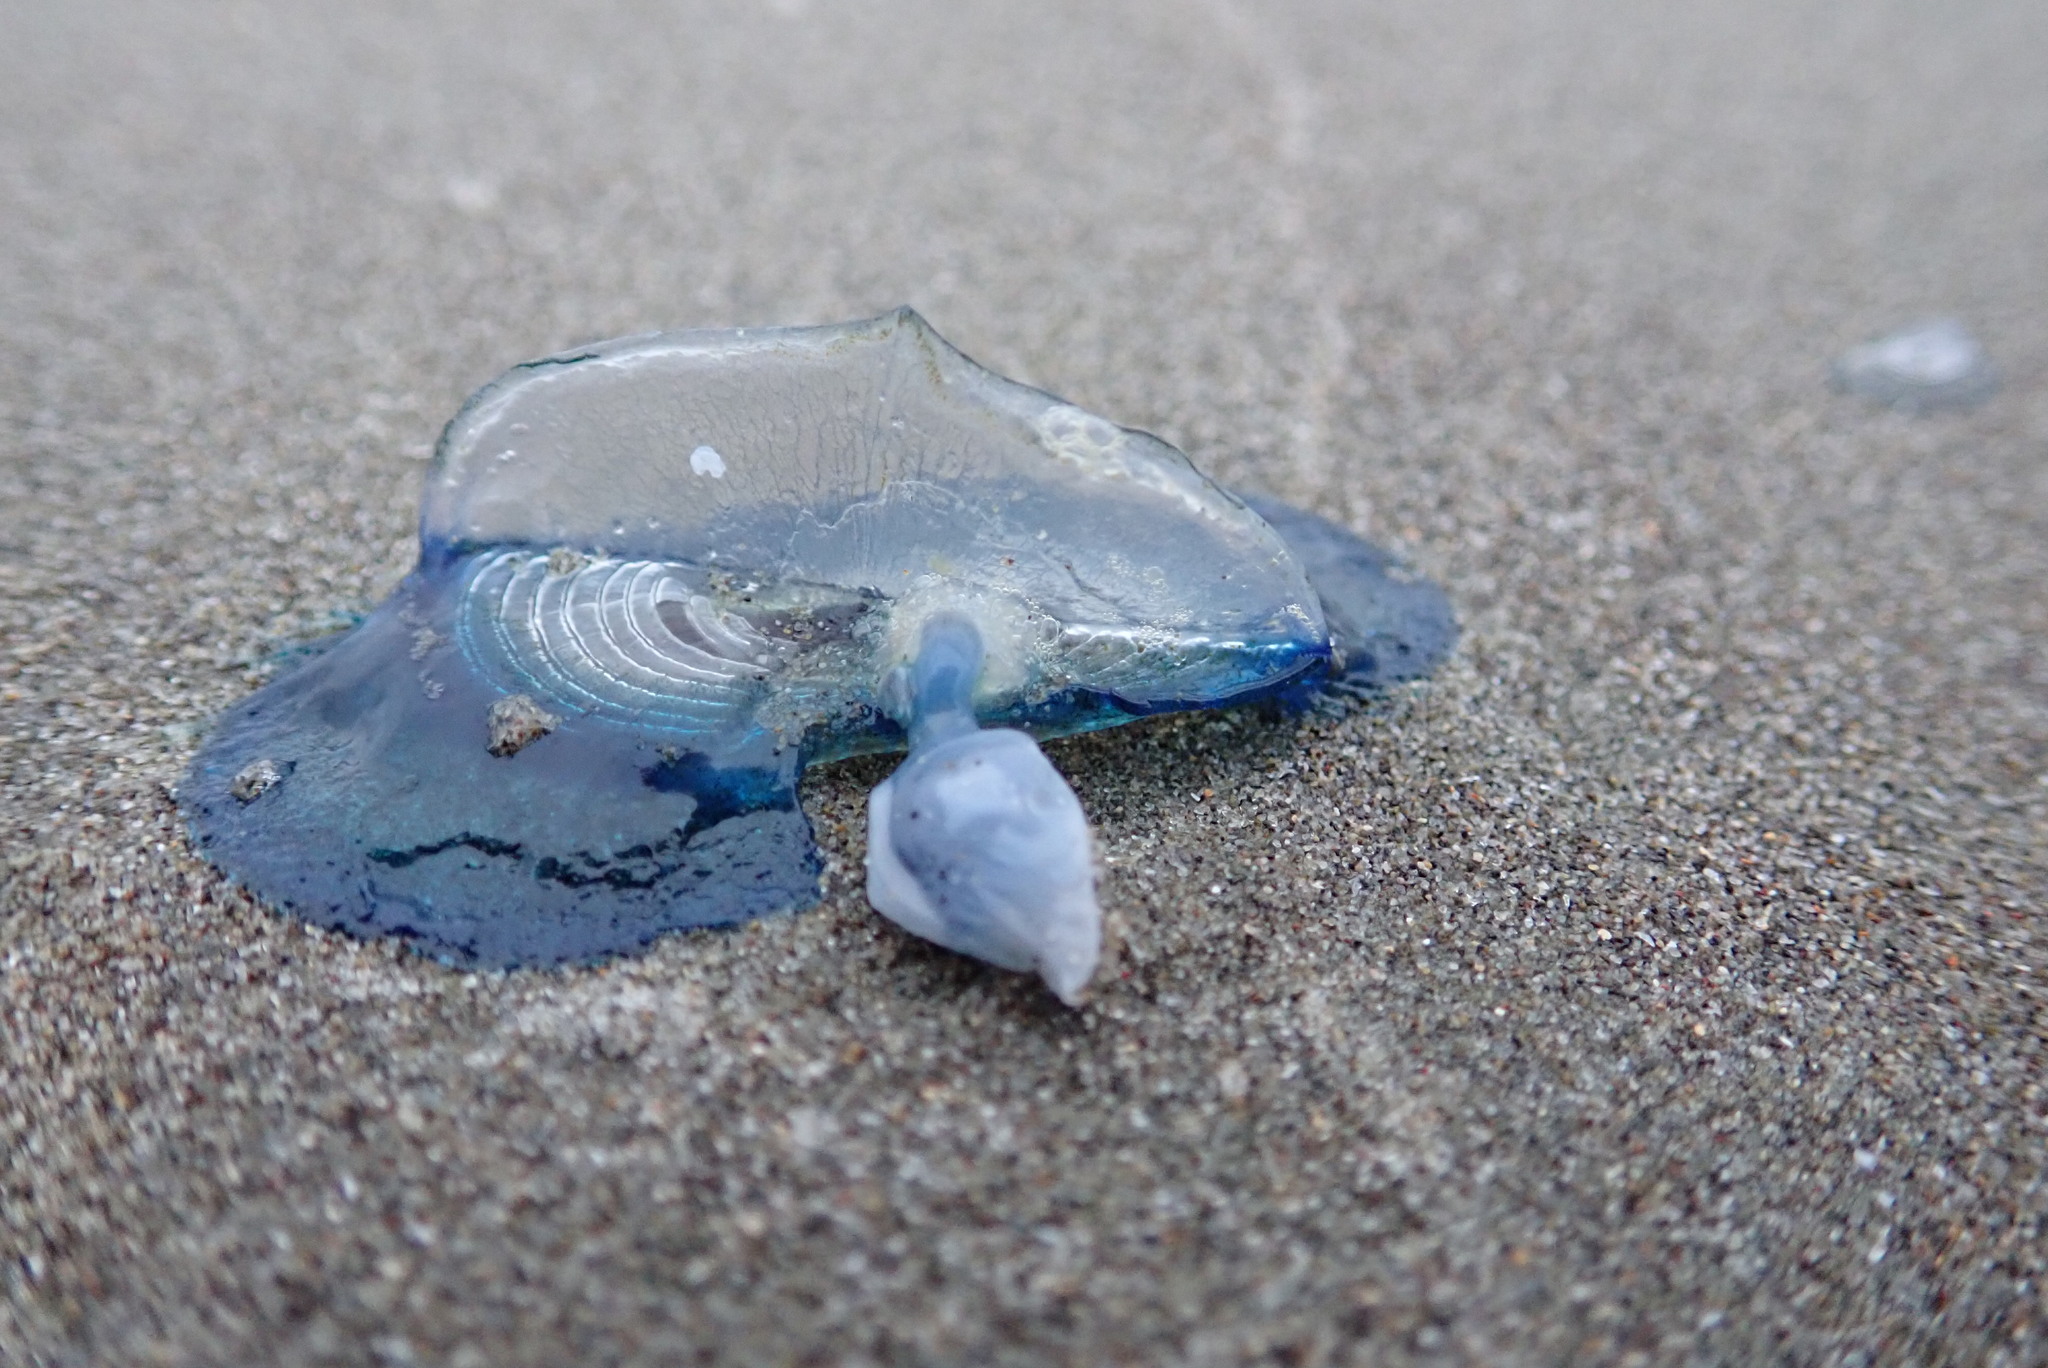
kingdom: Animalia
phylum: Arthropoda
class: Maxillopoda
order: Pedunculata
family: Lepadidae
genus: Dosima
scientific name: Dosima fascicularis
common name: Buoy barnacle
